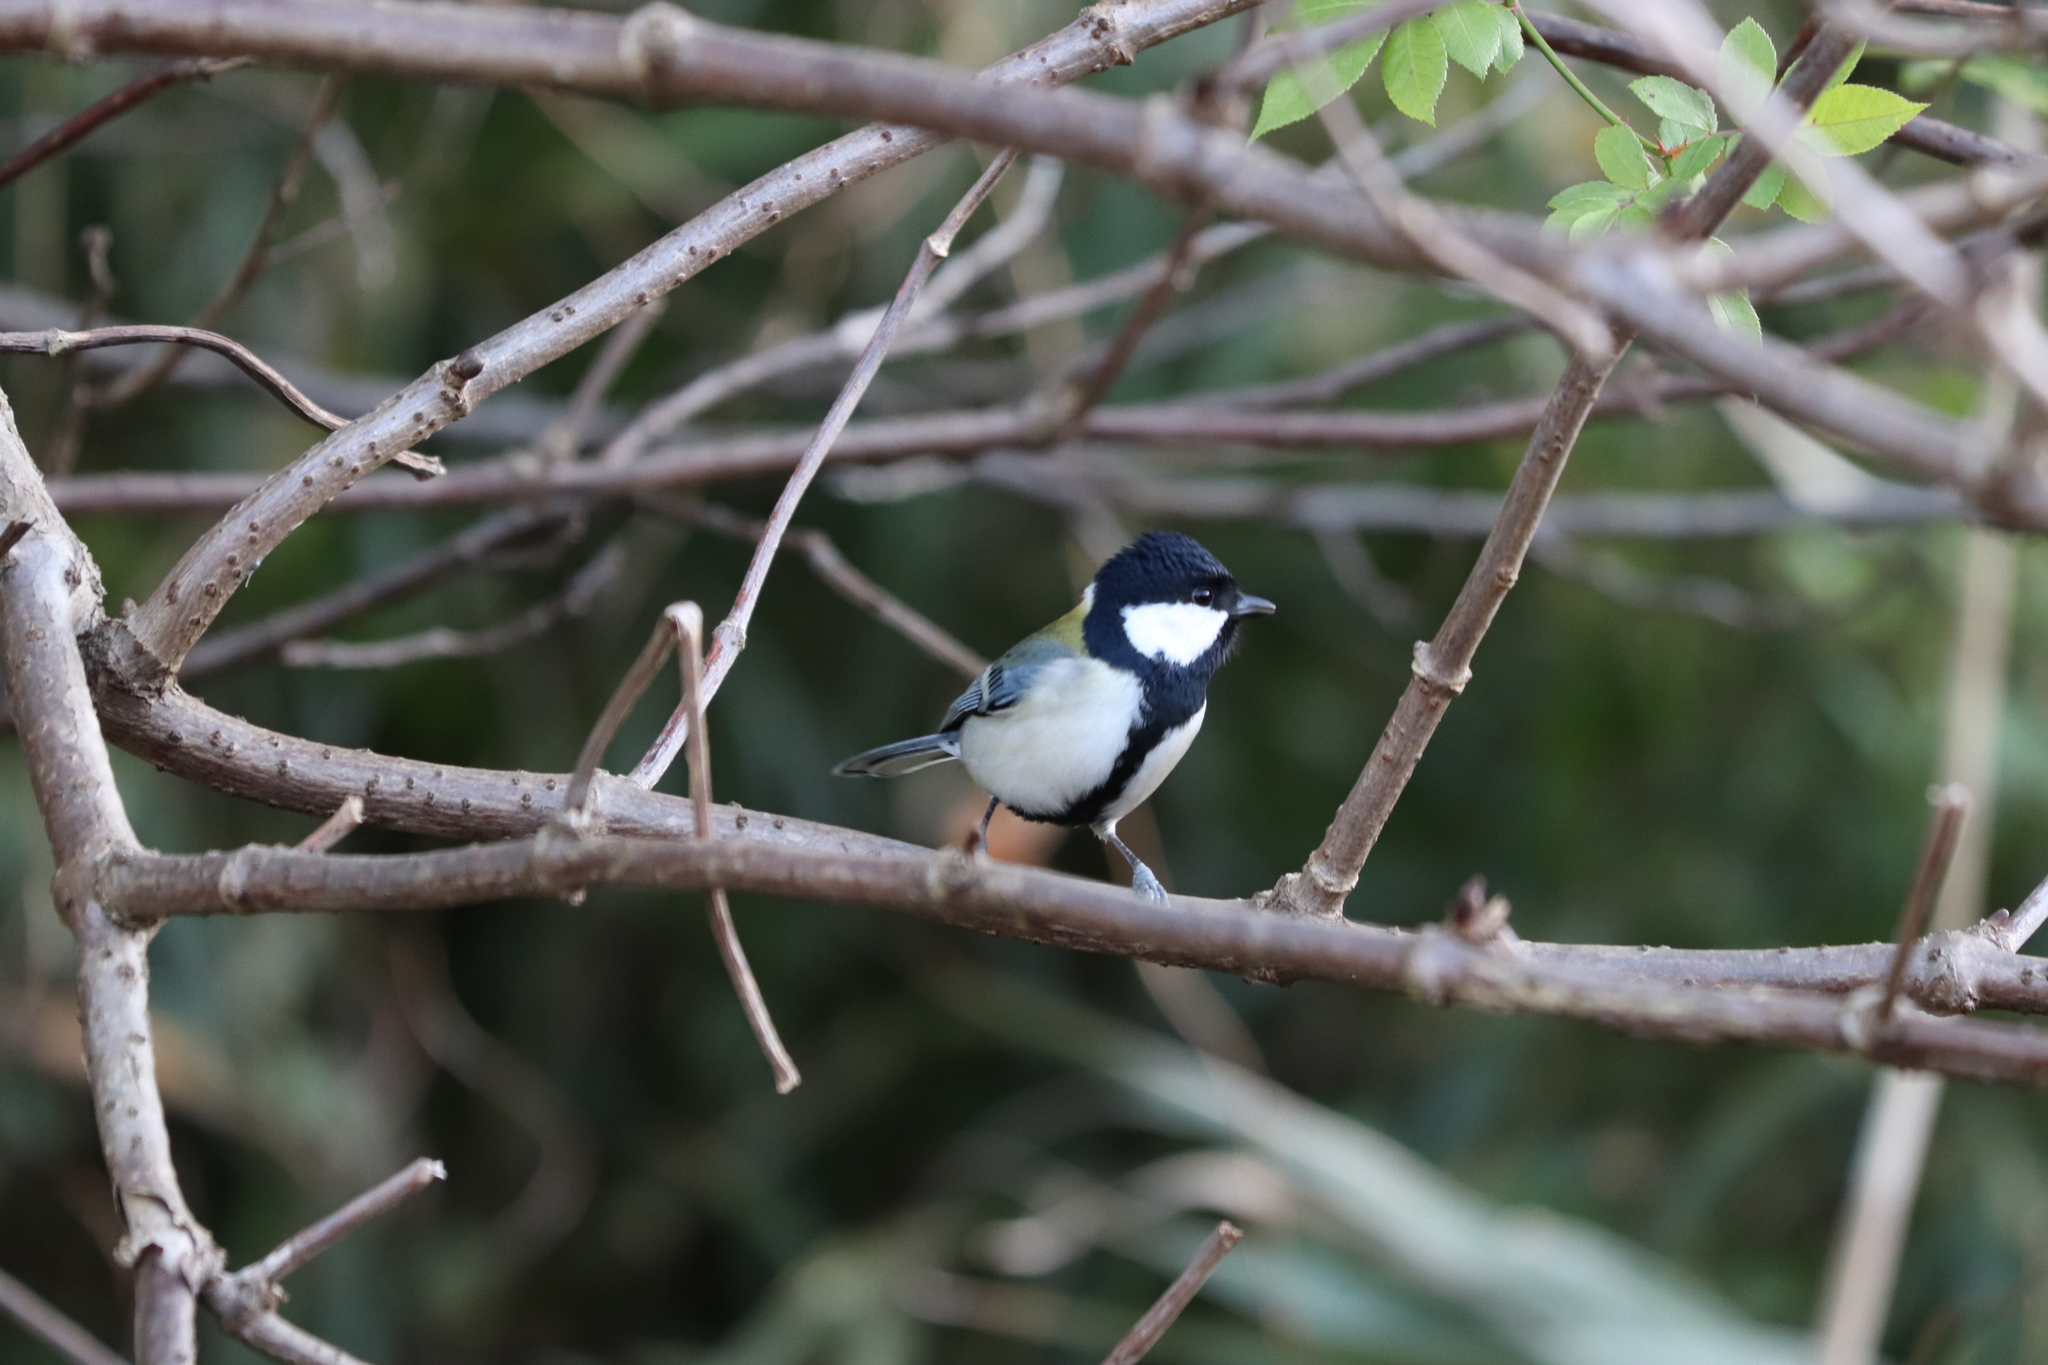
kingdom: Animalia
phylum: Chordata
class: Aves
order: Passeriformes
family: Paridae
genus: Parus
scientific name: Parus minor
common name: Japanese tit
